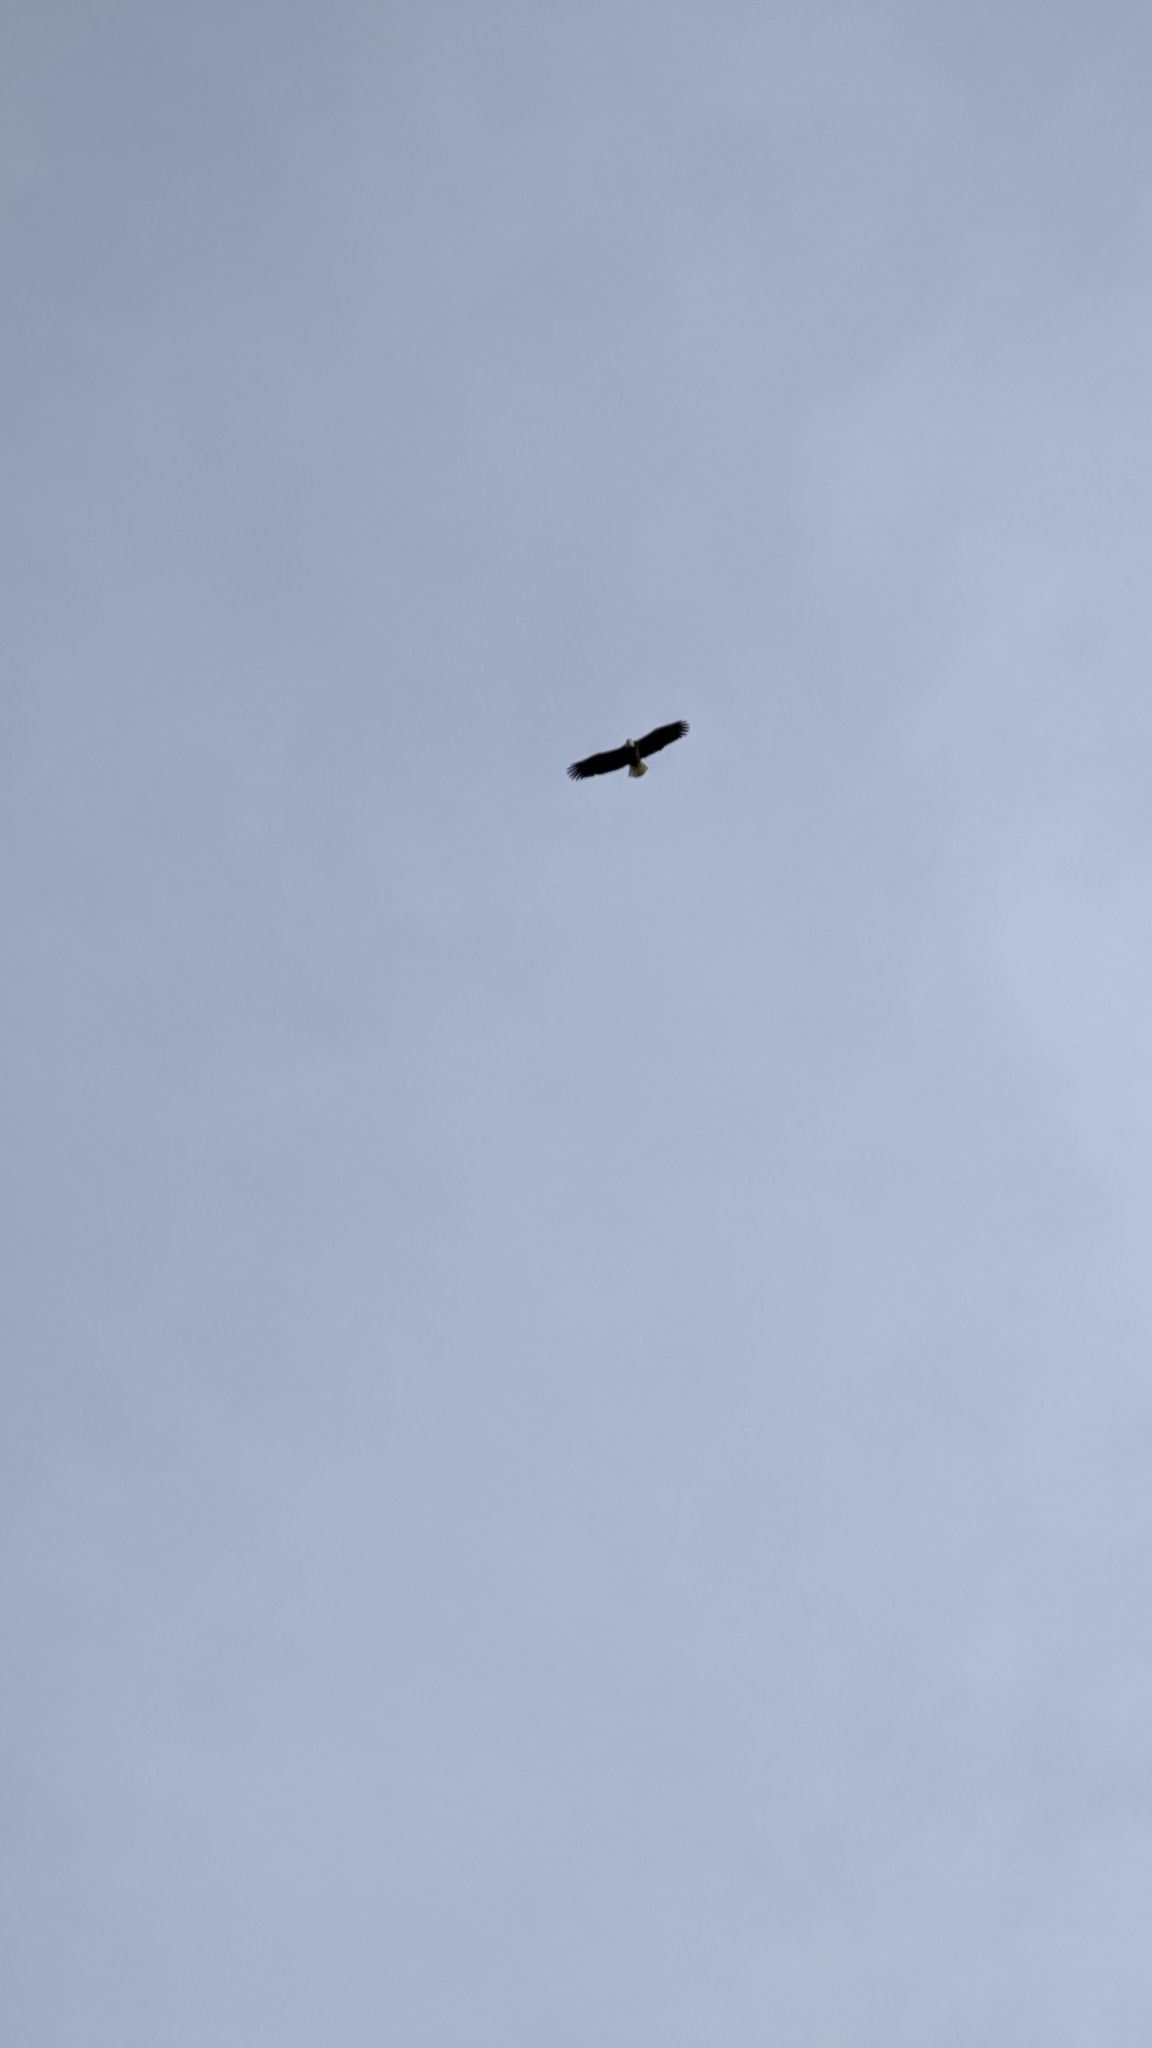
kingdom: Animalia
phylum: Chordata
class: Aves
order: Accipitriformes
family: Accipitridae
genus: Haliaeetus
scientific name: Haliaeetus leucocephalus
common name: Bald eagle
